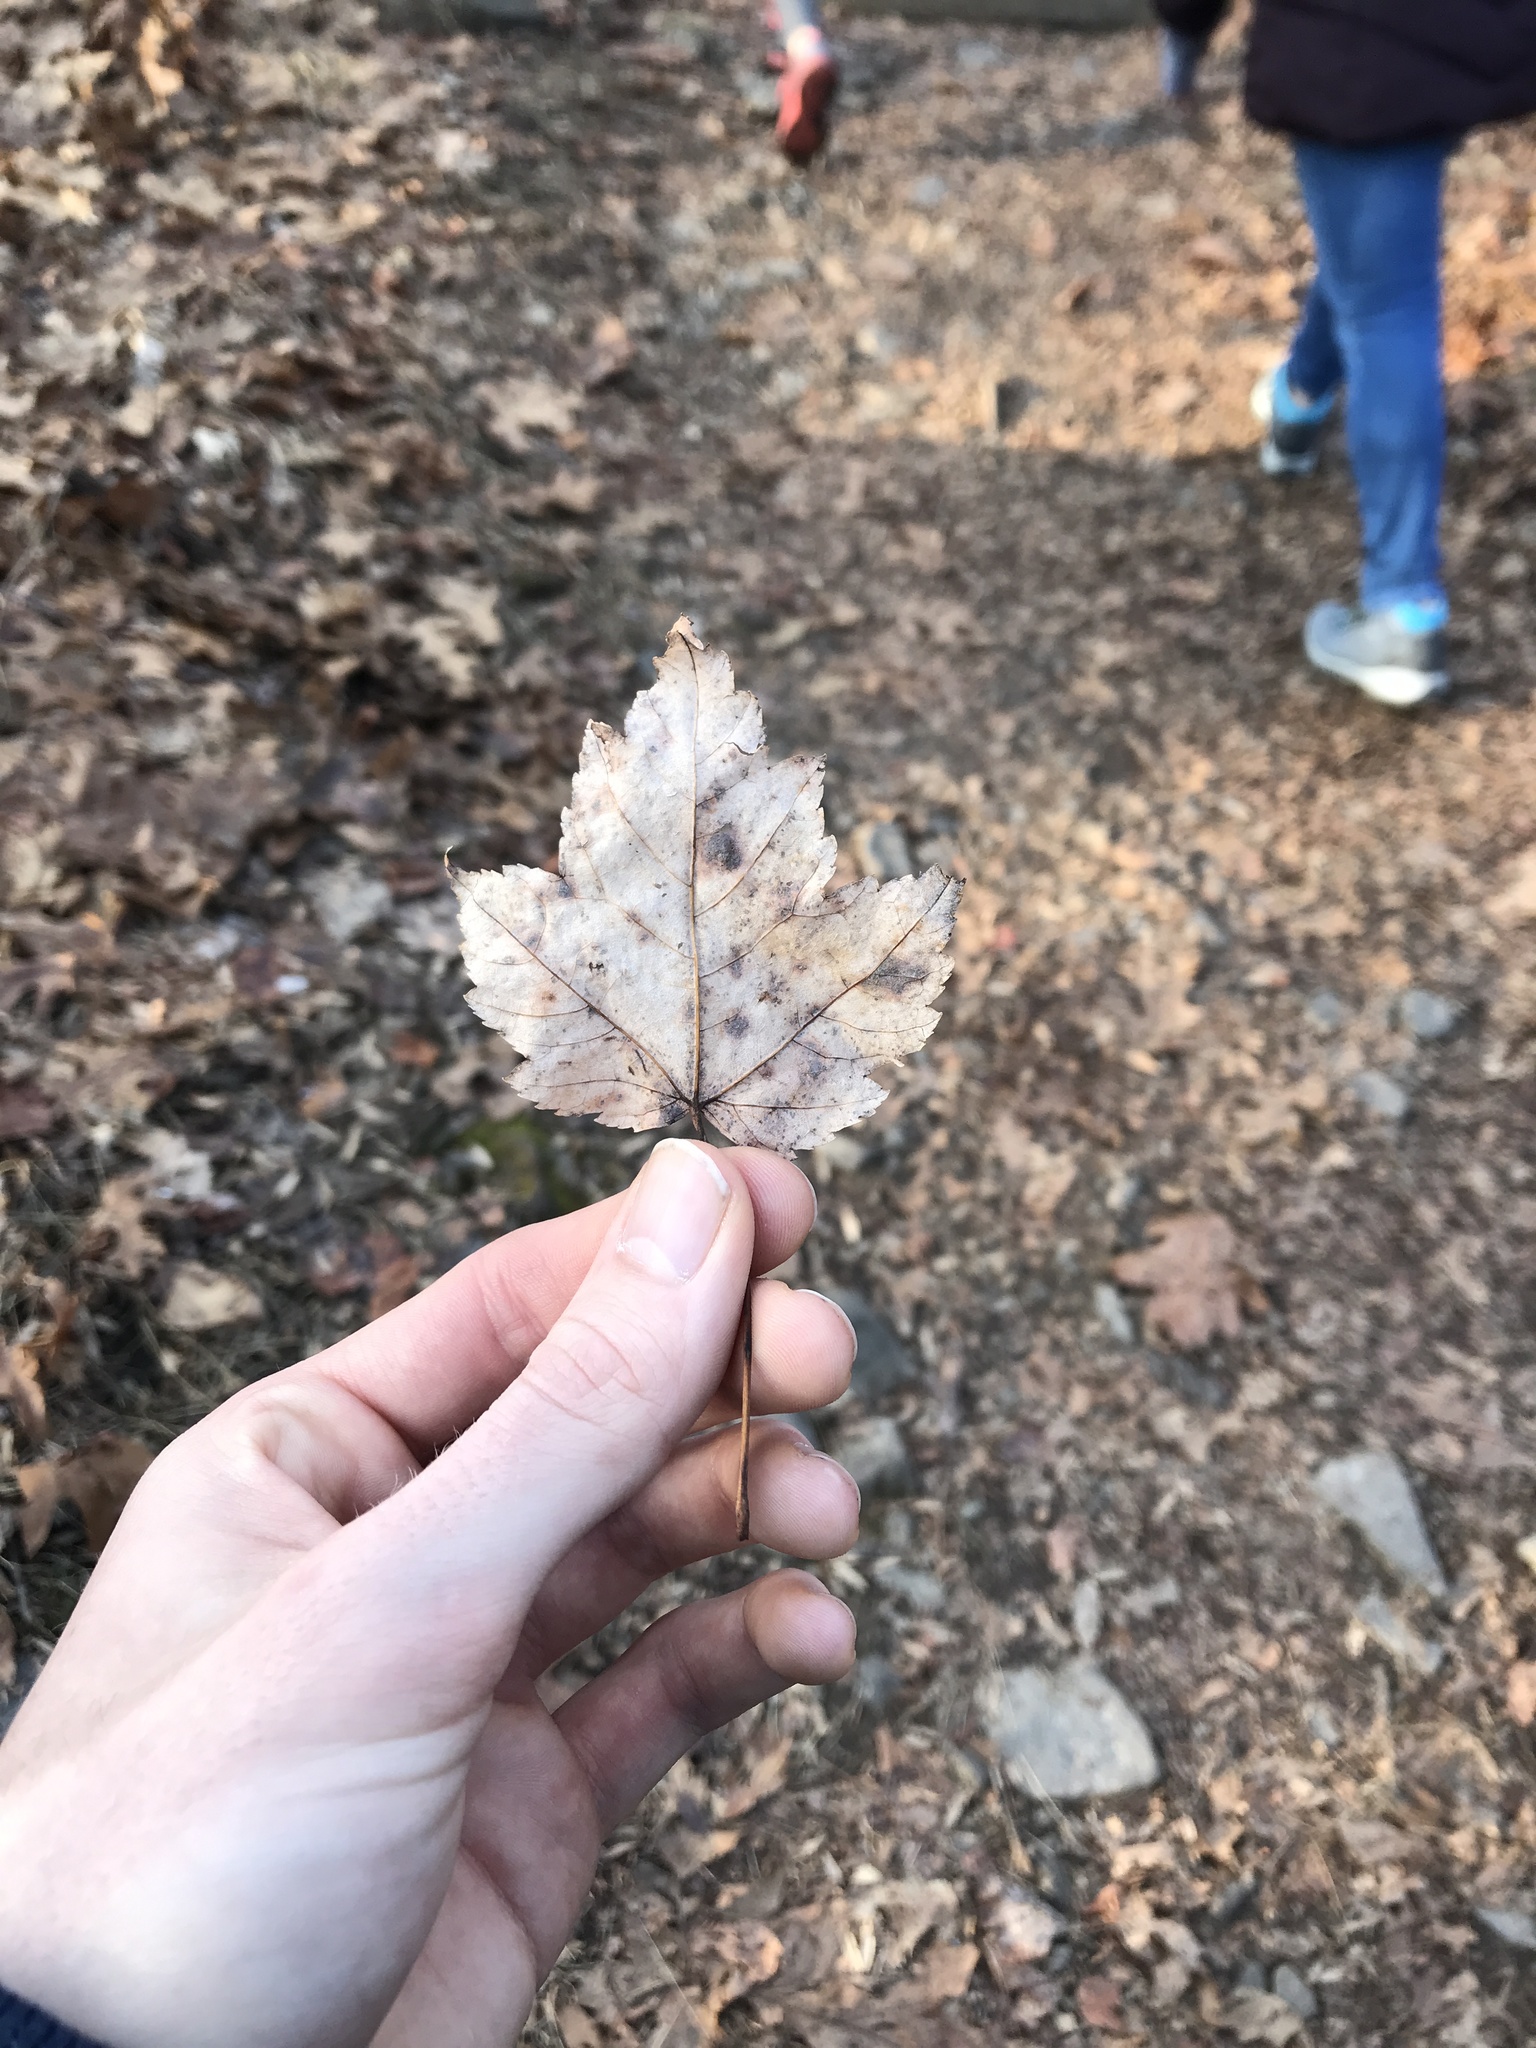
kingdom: Plantae
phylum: Tracheophyta
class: Magnoliopsida
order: Sapindales
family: Sapindaceae
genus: Acer
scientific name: Acer rubrum
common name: Red maple
